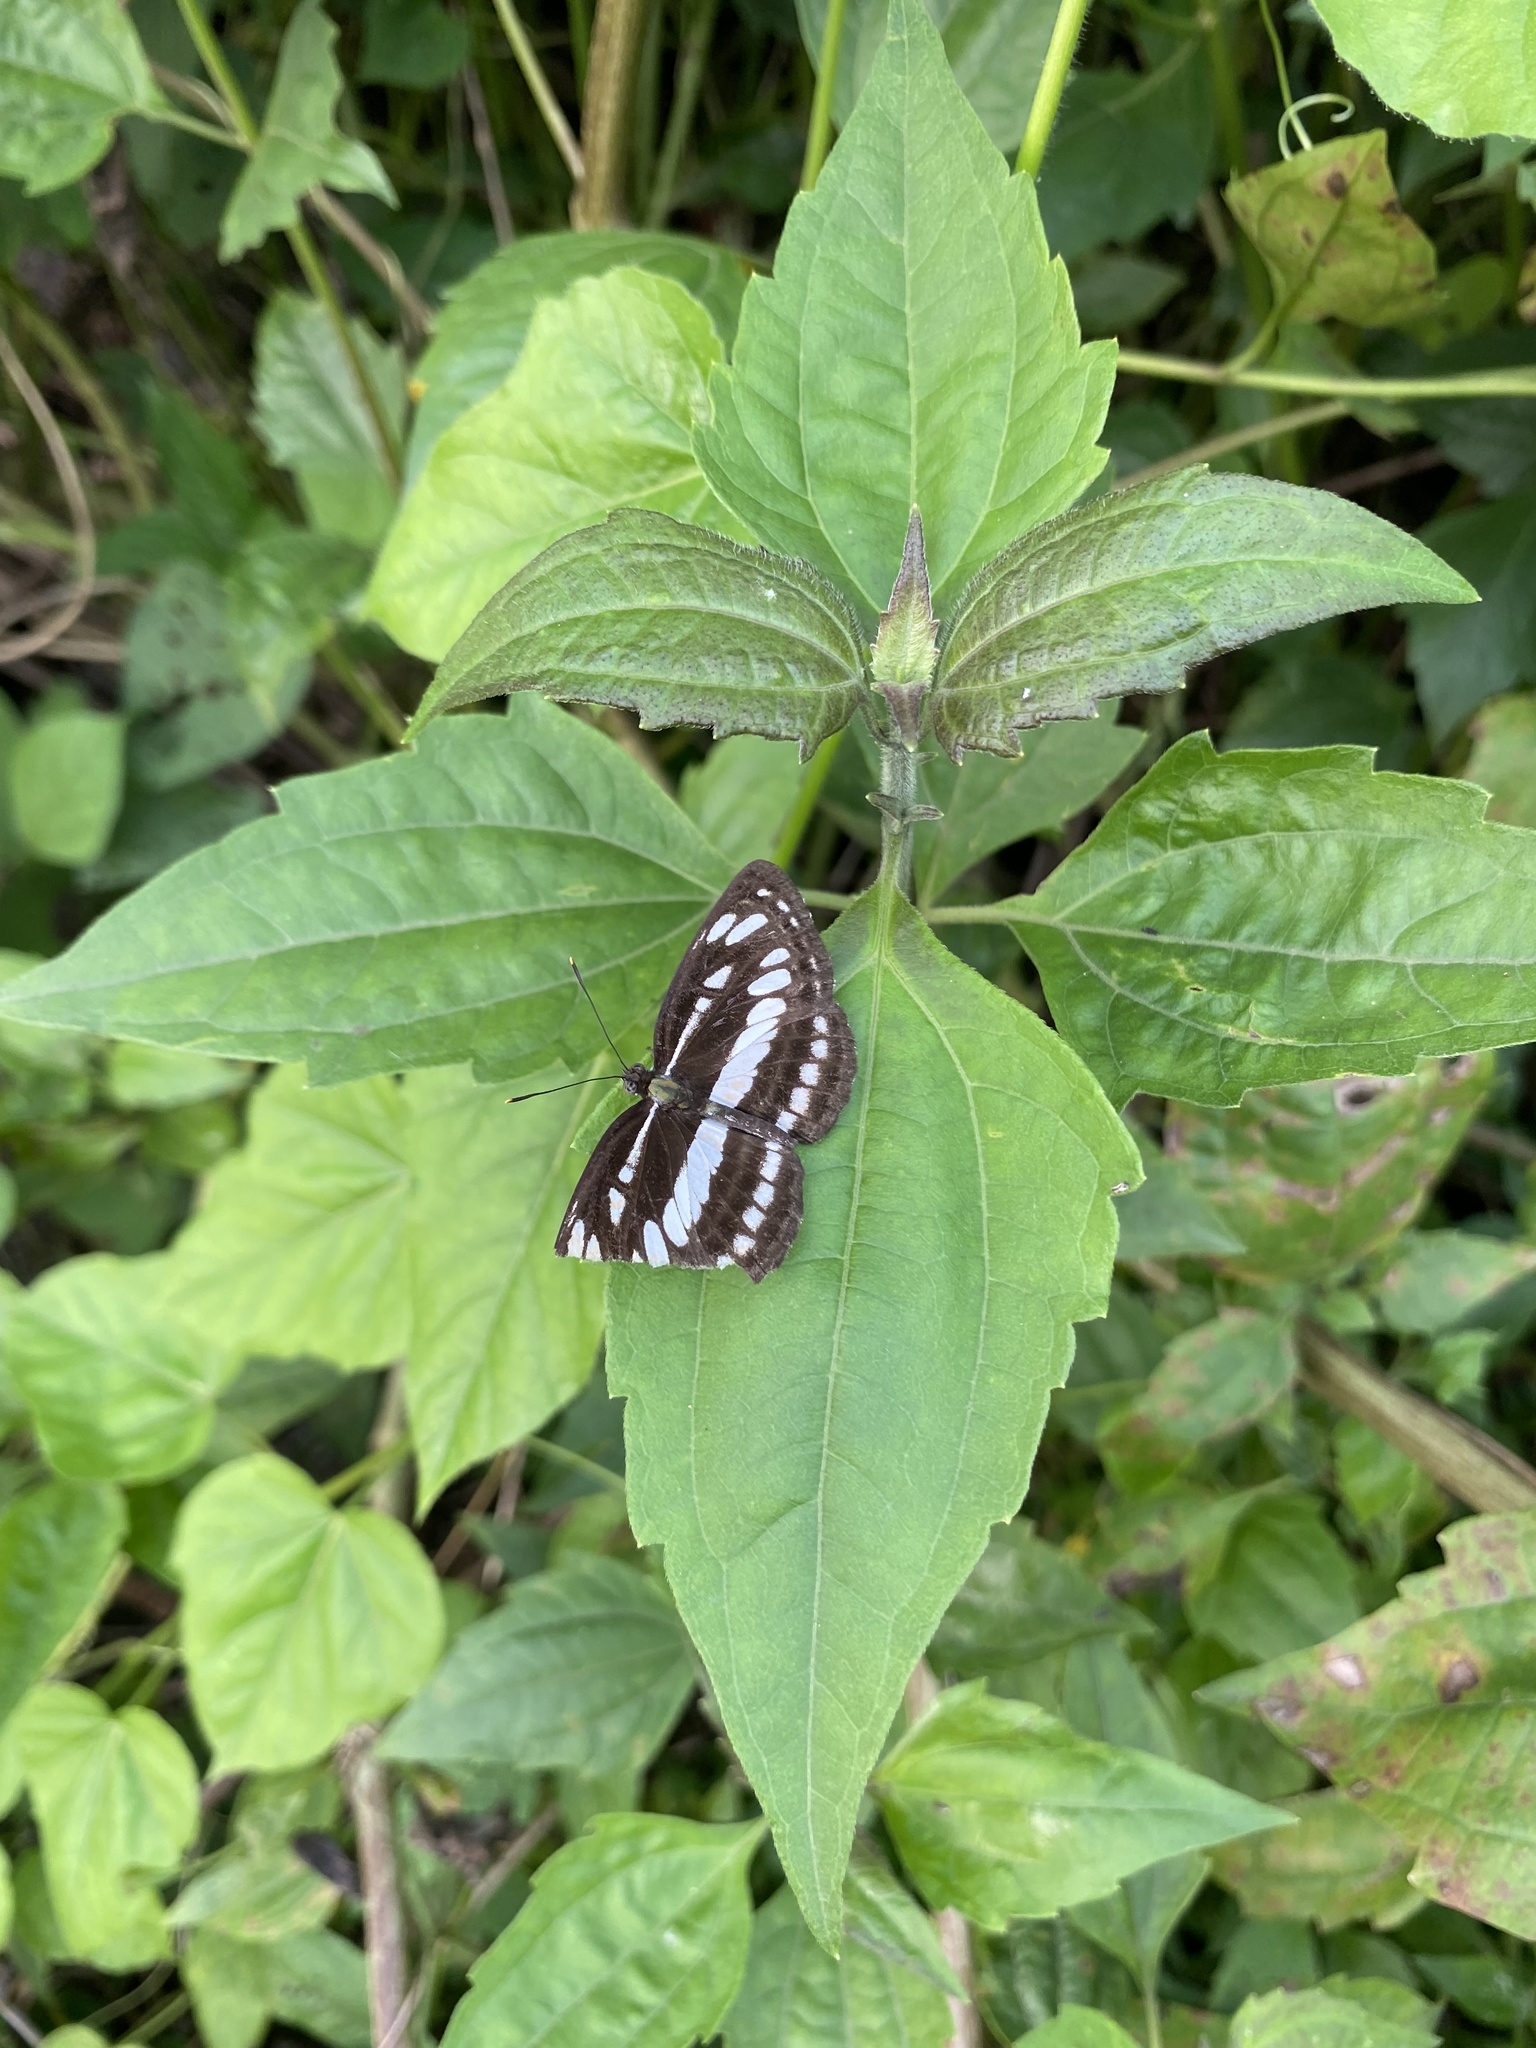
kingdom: Animalia
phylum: Arthropoda
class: Insecta
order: Lepidoptera
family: Nymphalidae
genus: Neptis
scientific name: Neptis hylas
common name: Common sailer
